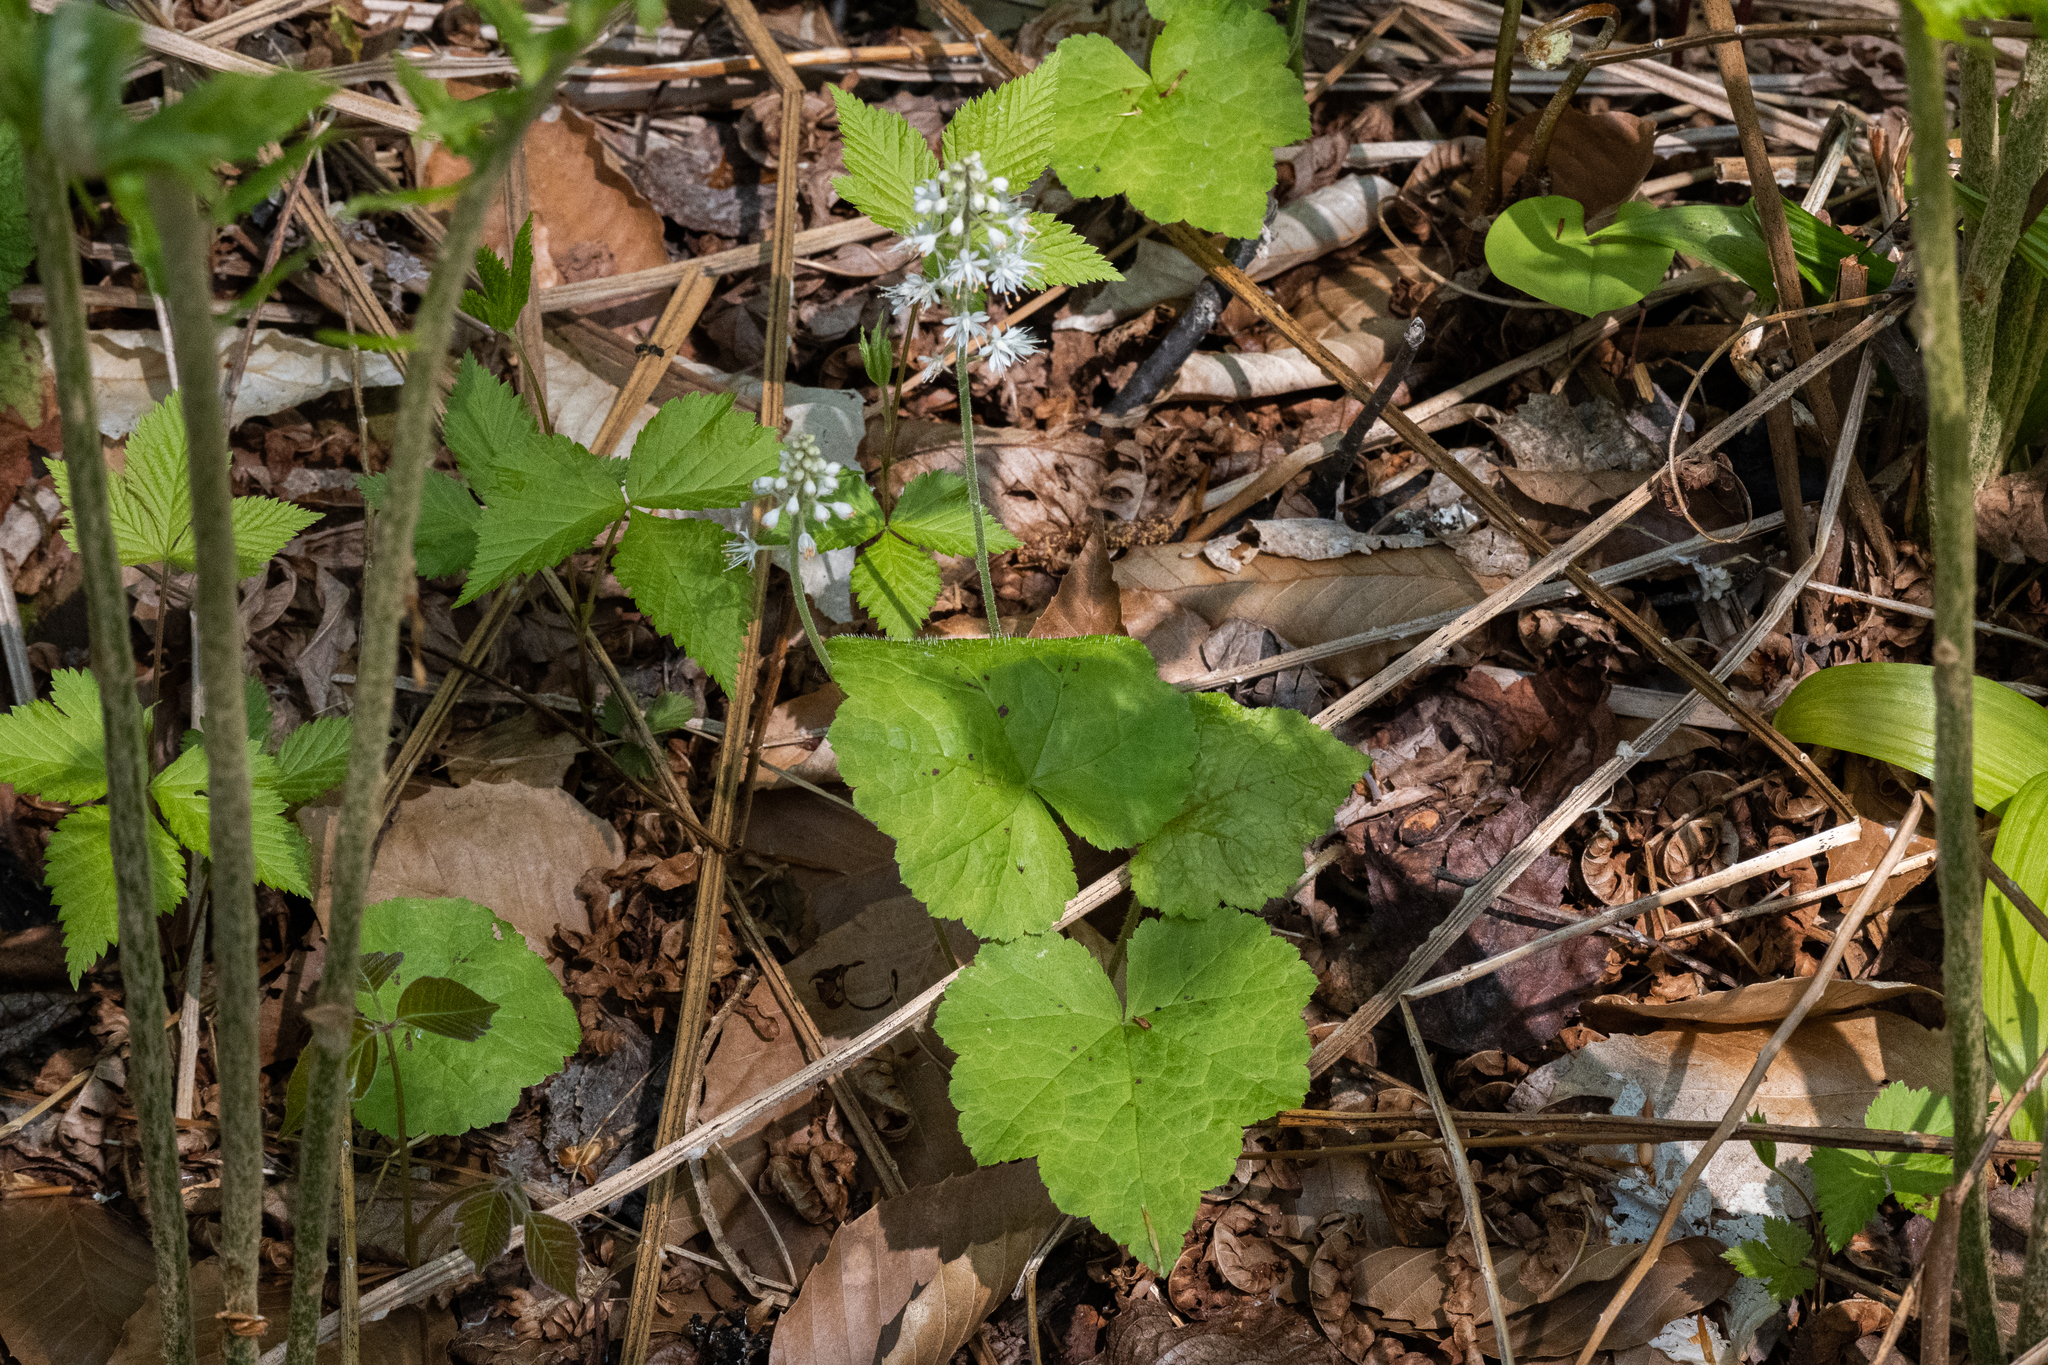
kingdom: Plantae
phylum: Tracheophyta
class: Magnoliopsida
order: Saxifragales
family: Saxifragaceae
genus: Tiarella
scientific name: Tiarella stolonifera
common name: Stoloniferous foamflower
